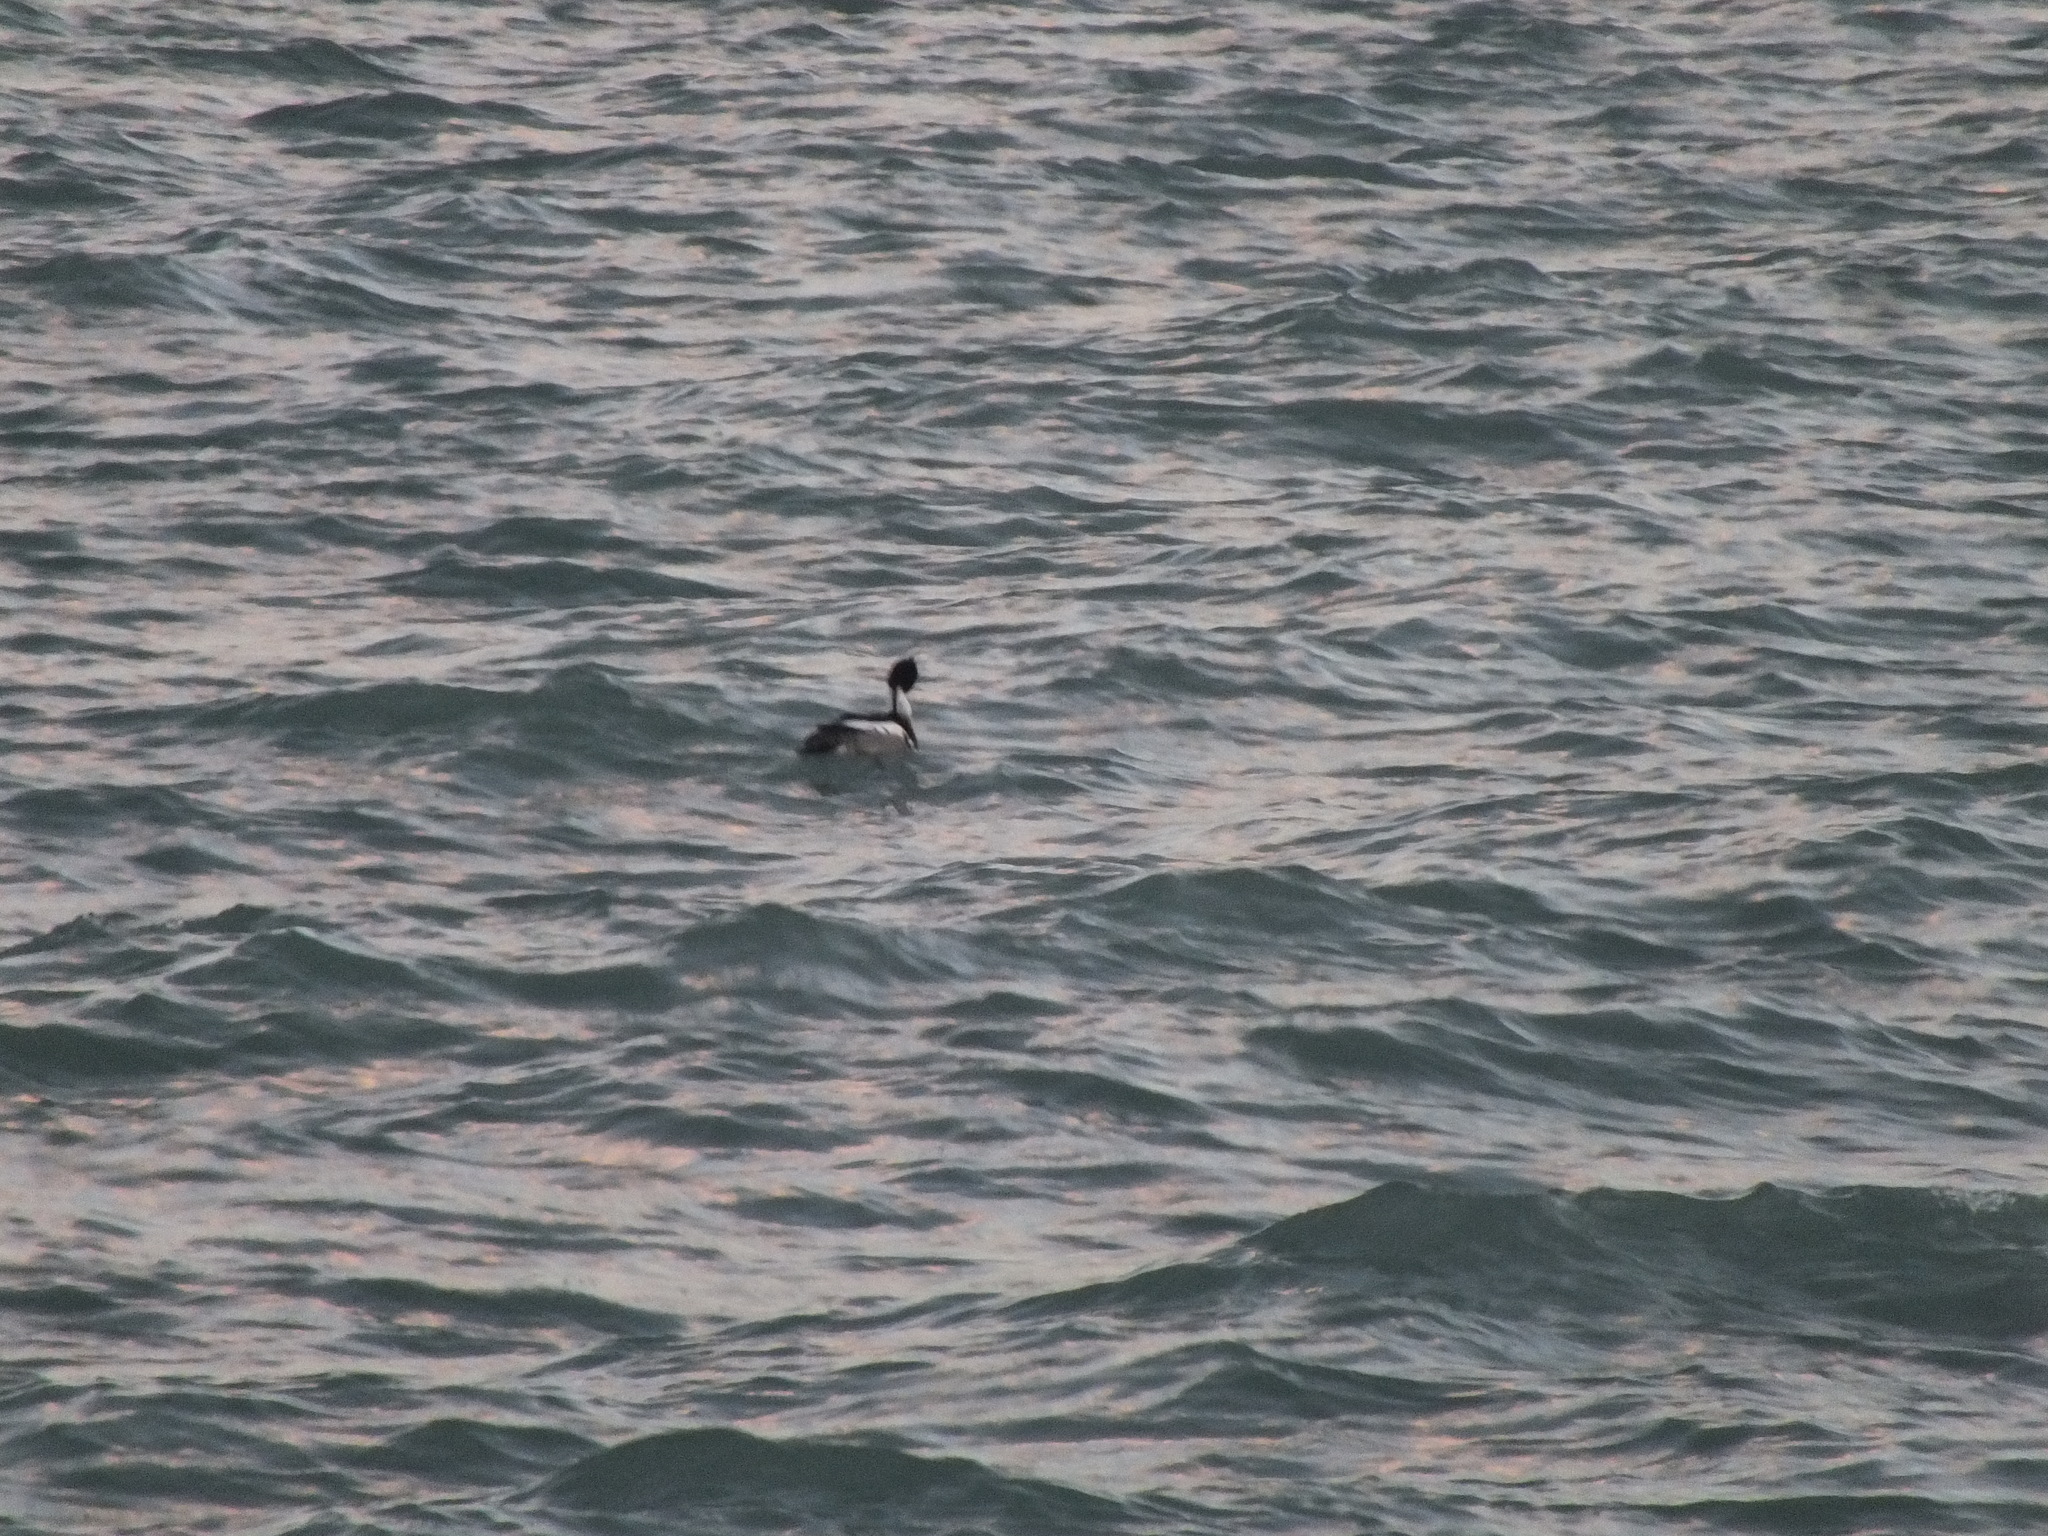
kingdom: Animalia
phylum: Chordata
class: Aves
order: Anseriformes
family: Anatidae
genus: Mergus
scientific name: Mergus serrator
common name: Red-breasted merganser
